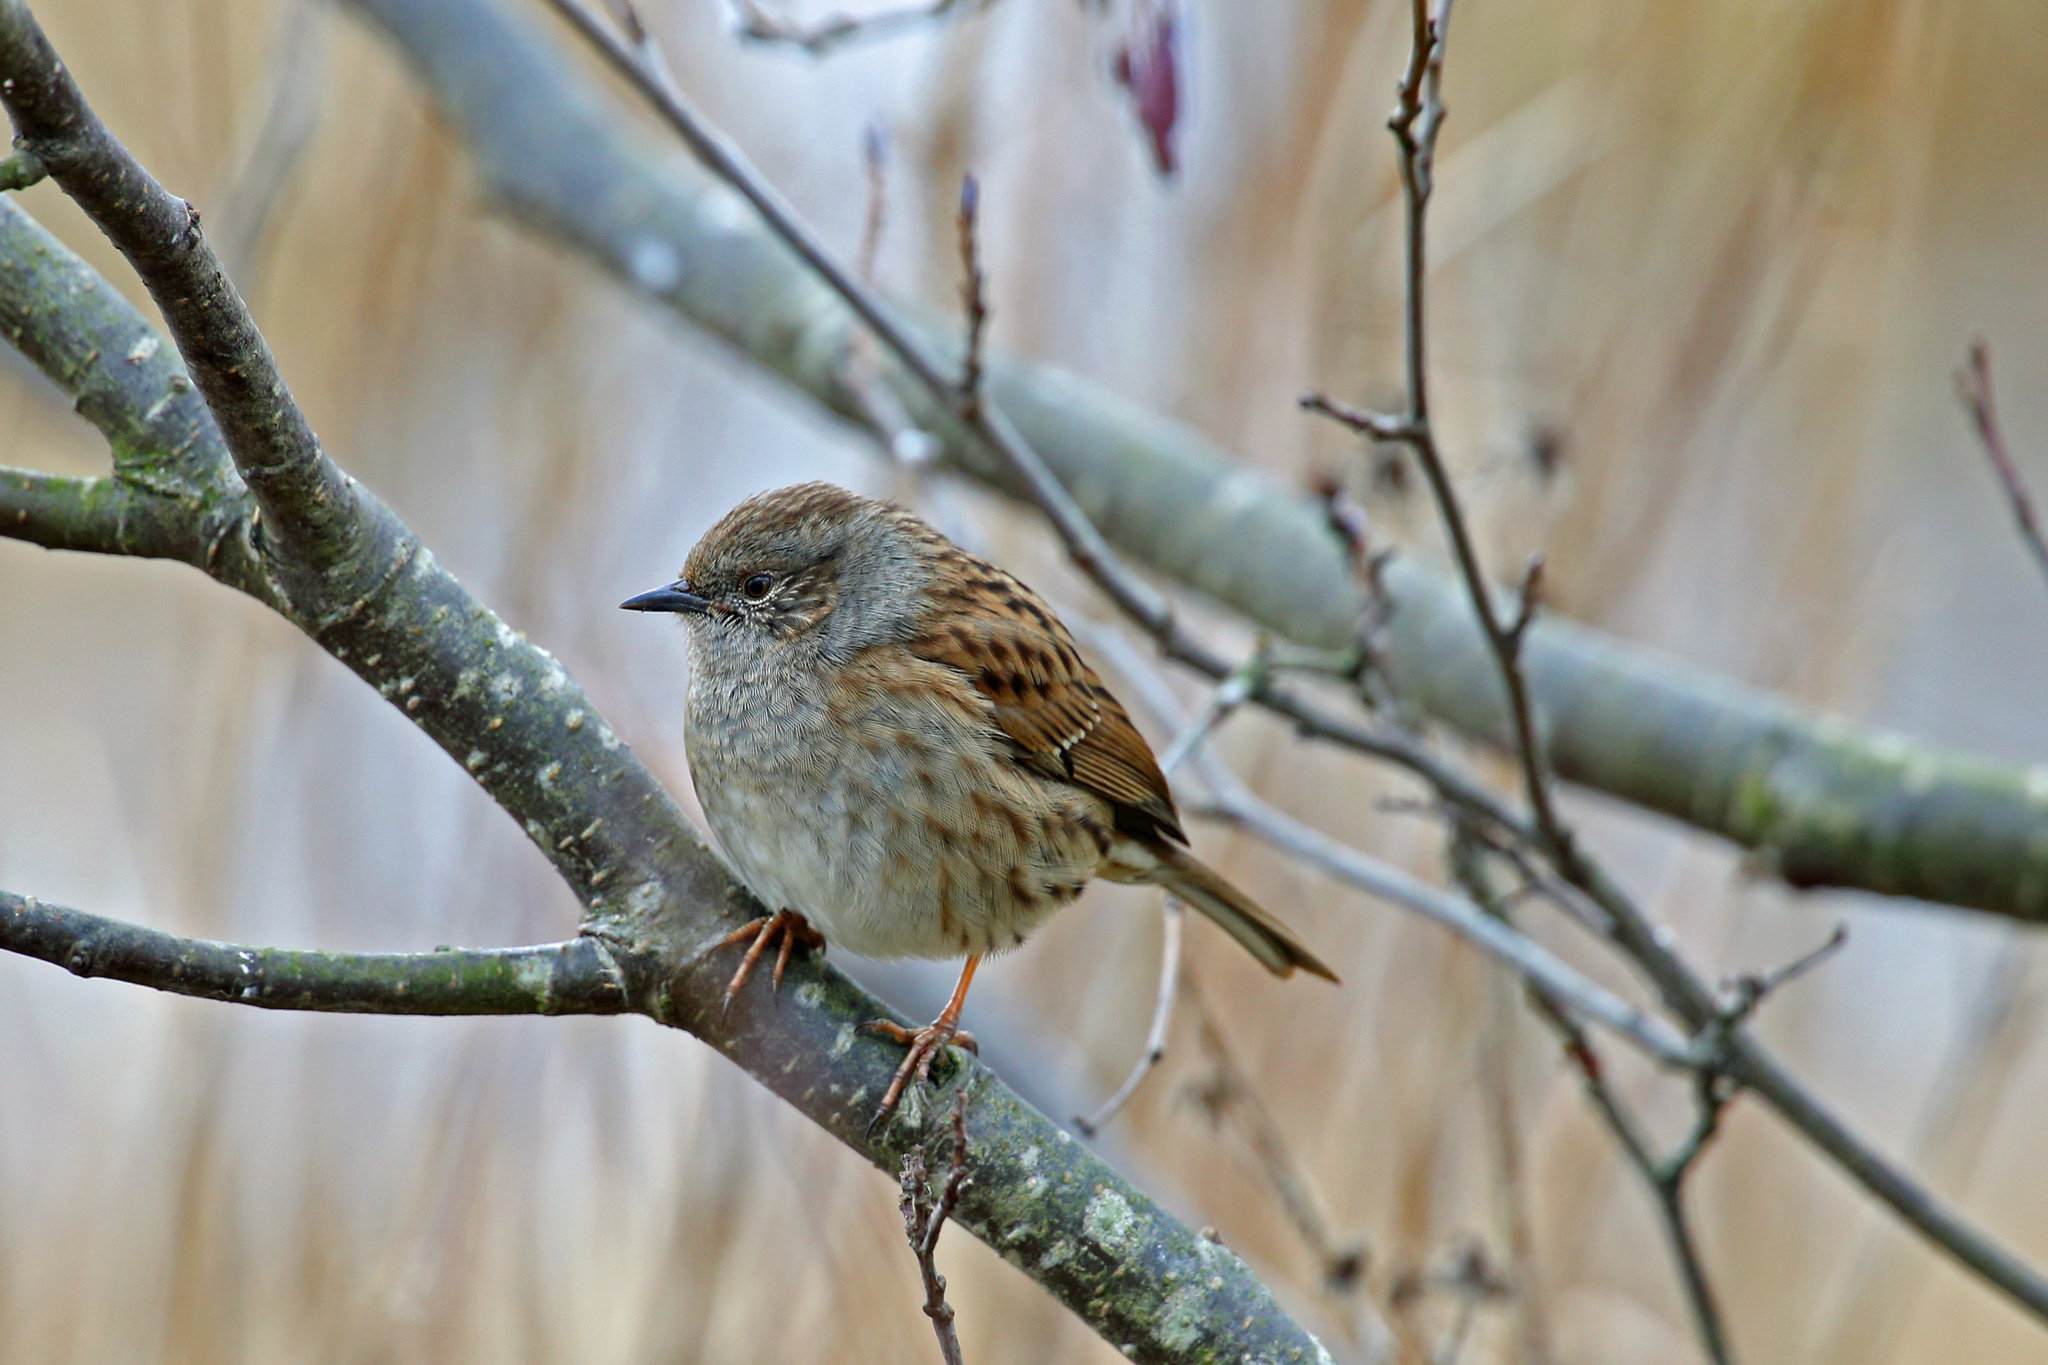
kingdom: Animalia
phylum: Chordata
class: Aves
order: Passeriformes
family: Prunellidae
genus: Prunella
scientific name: Prunella modularis
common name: Dunnock
